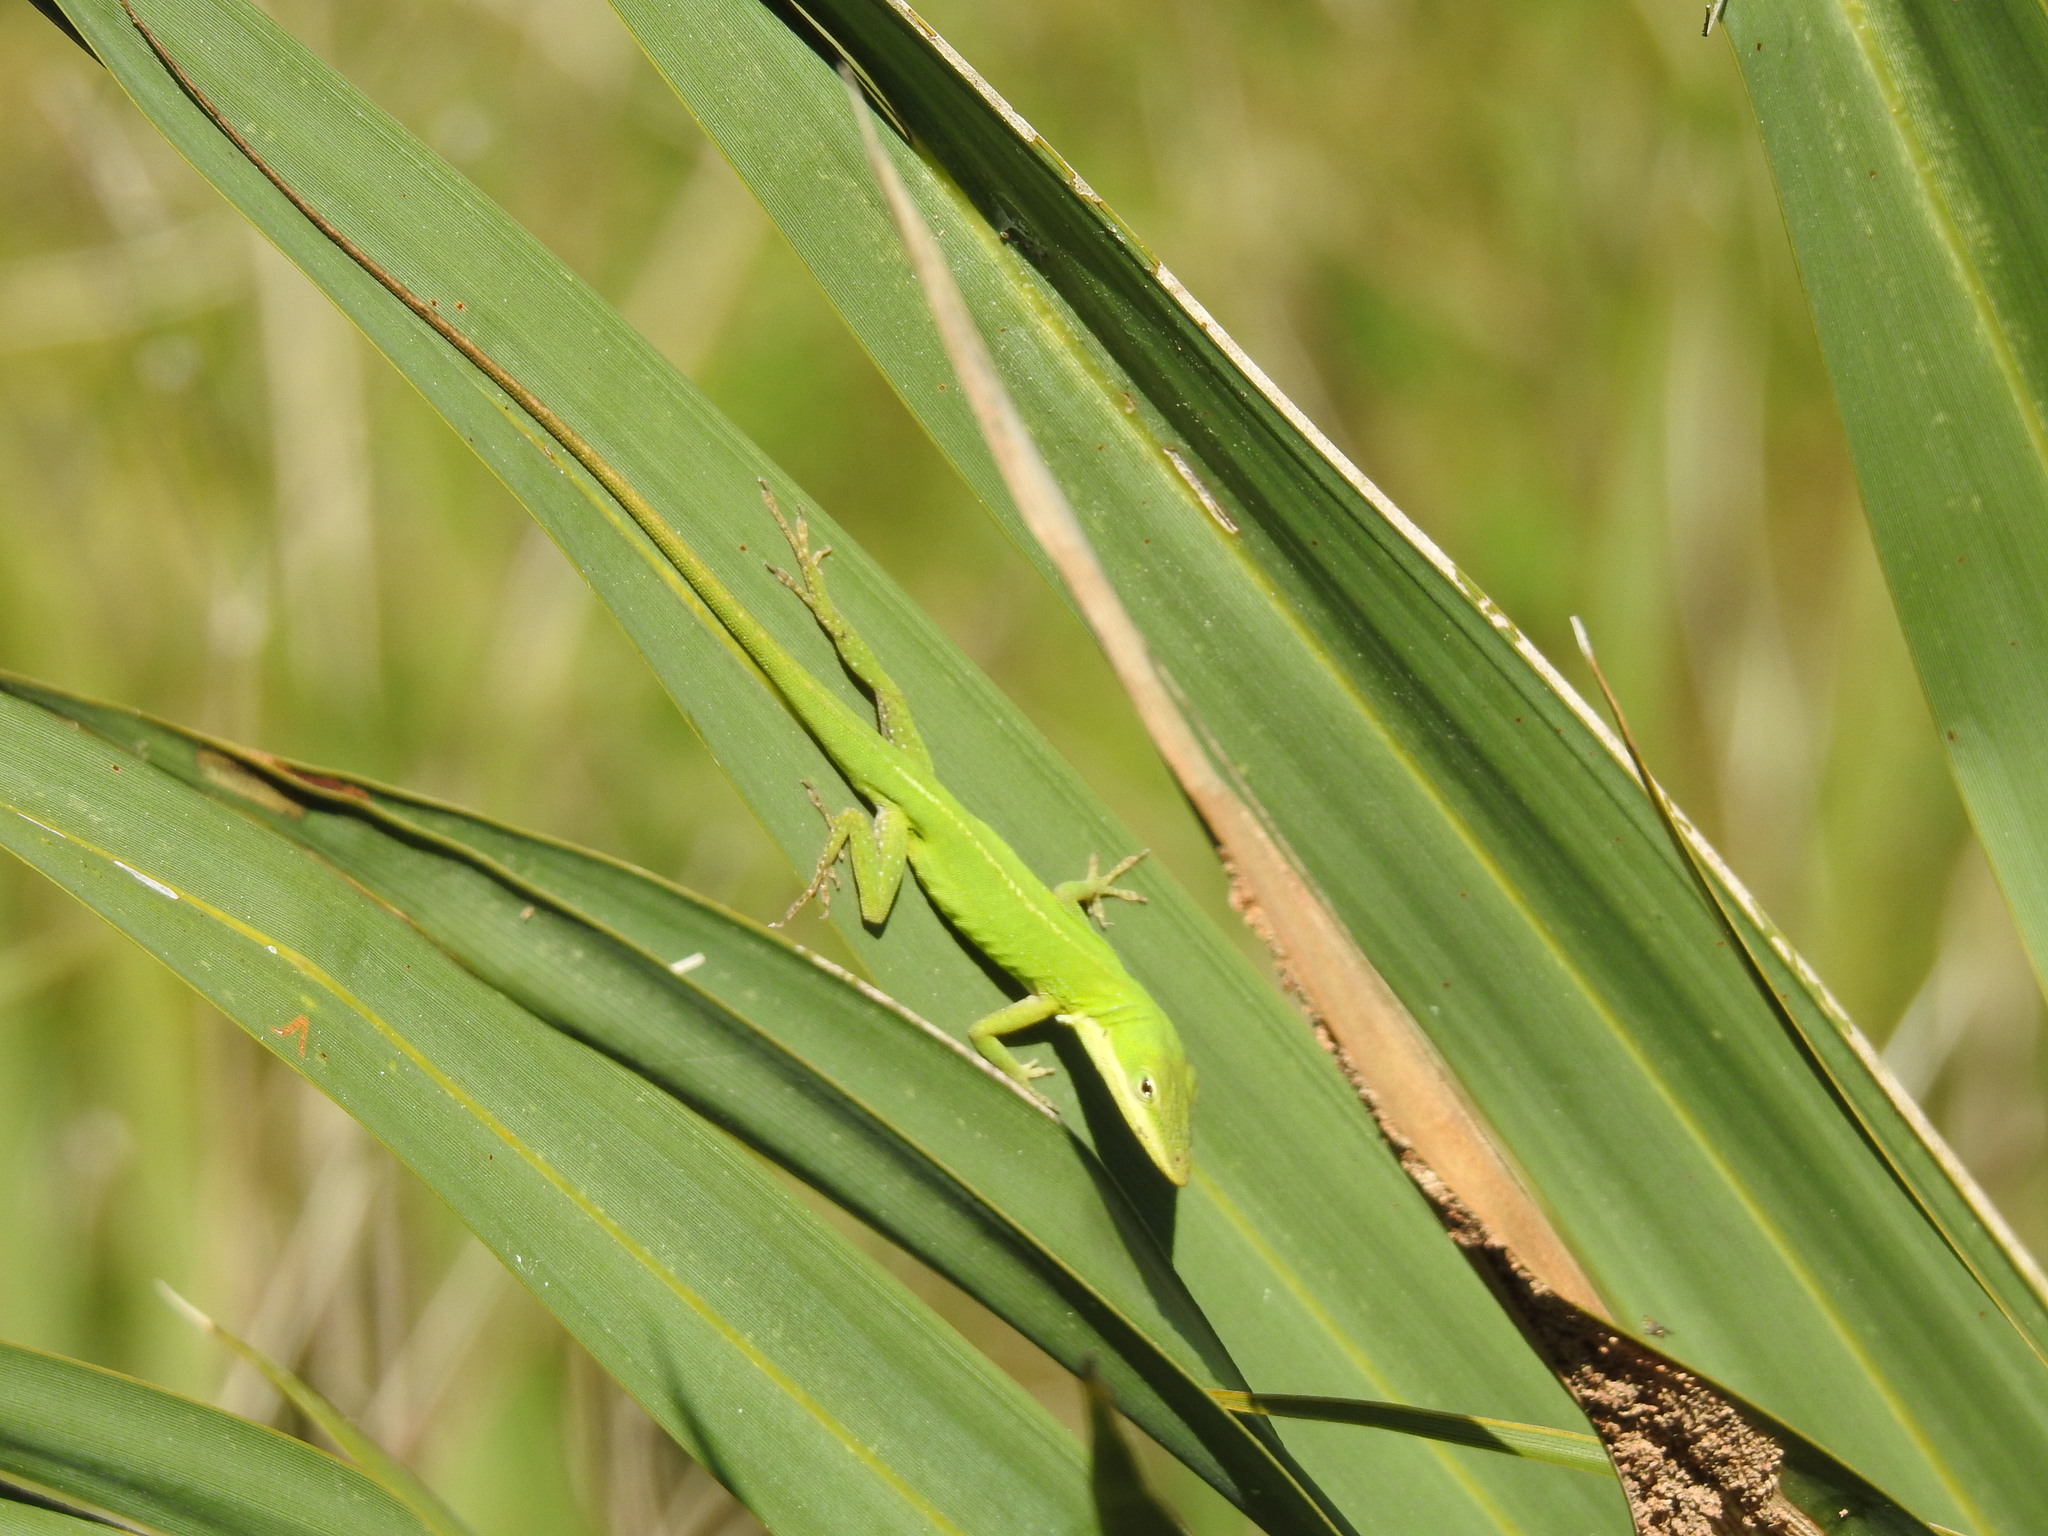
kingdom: Animalia
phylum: Chordata
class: Squamata
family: Dactyloidae
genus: Anolis
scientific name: Anolis carolinensis
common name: Green anole
